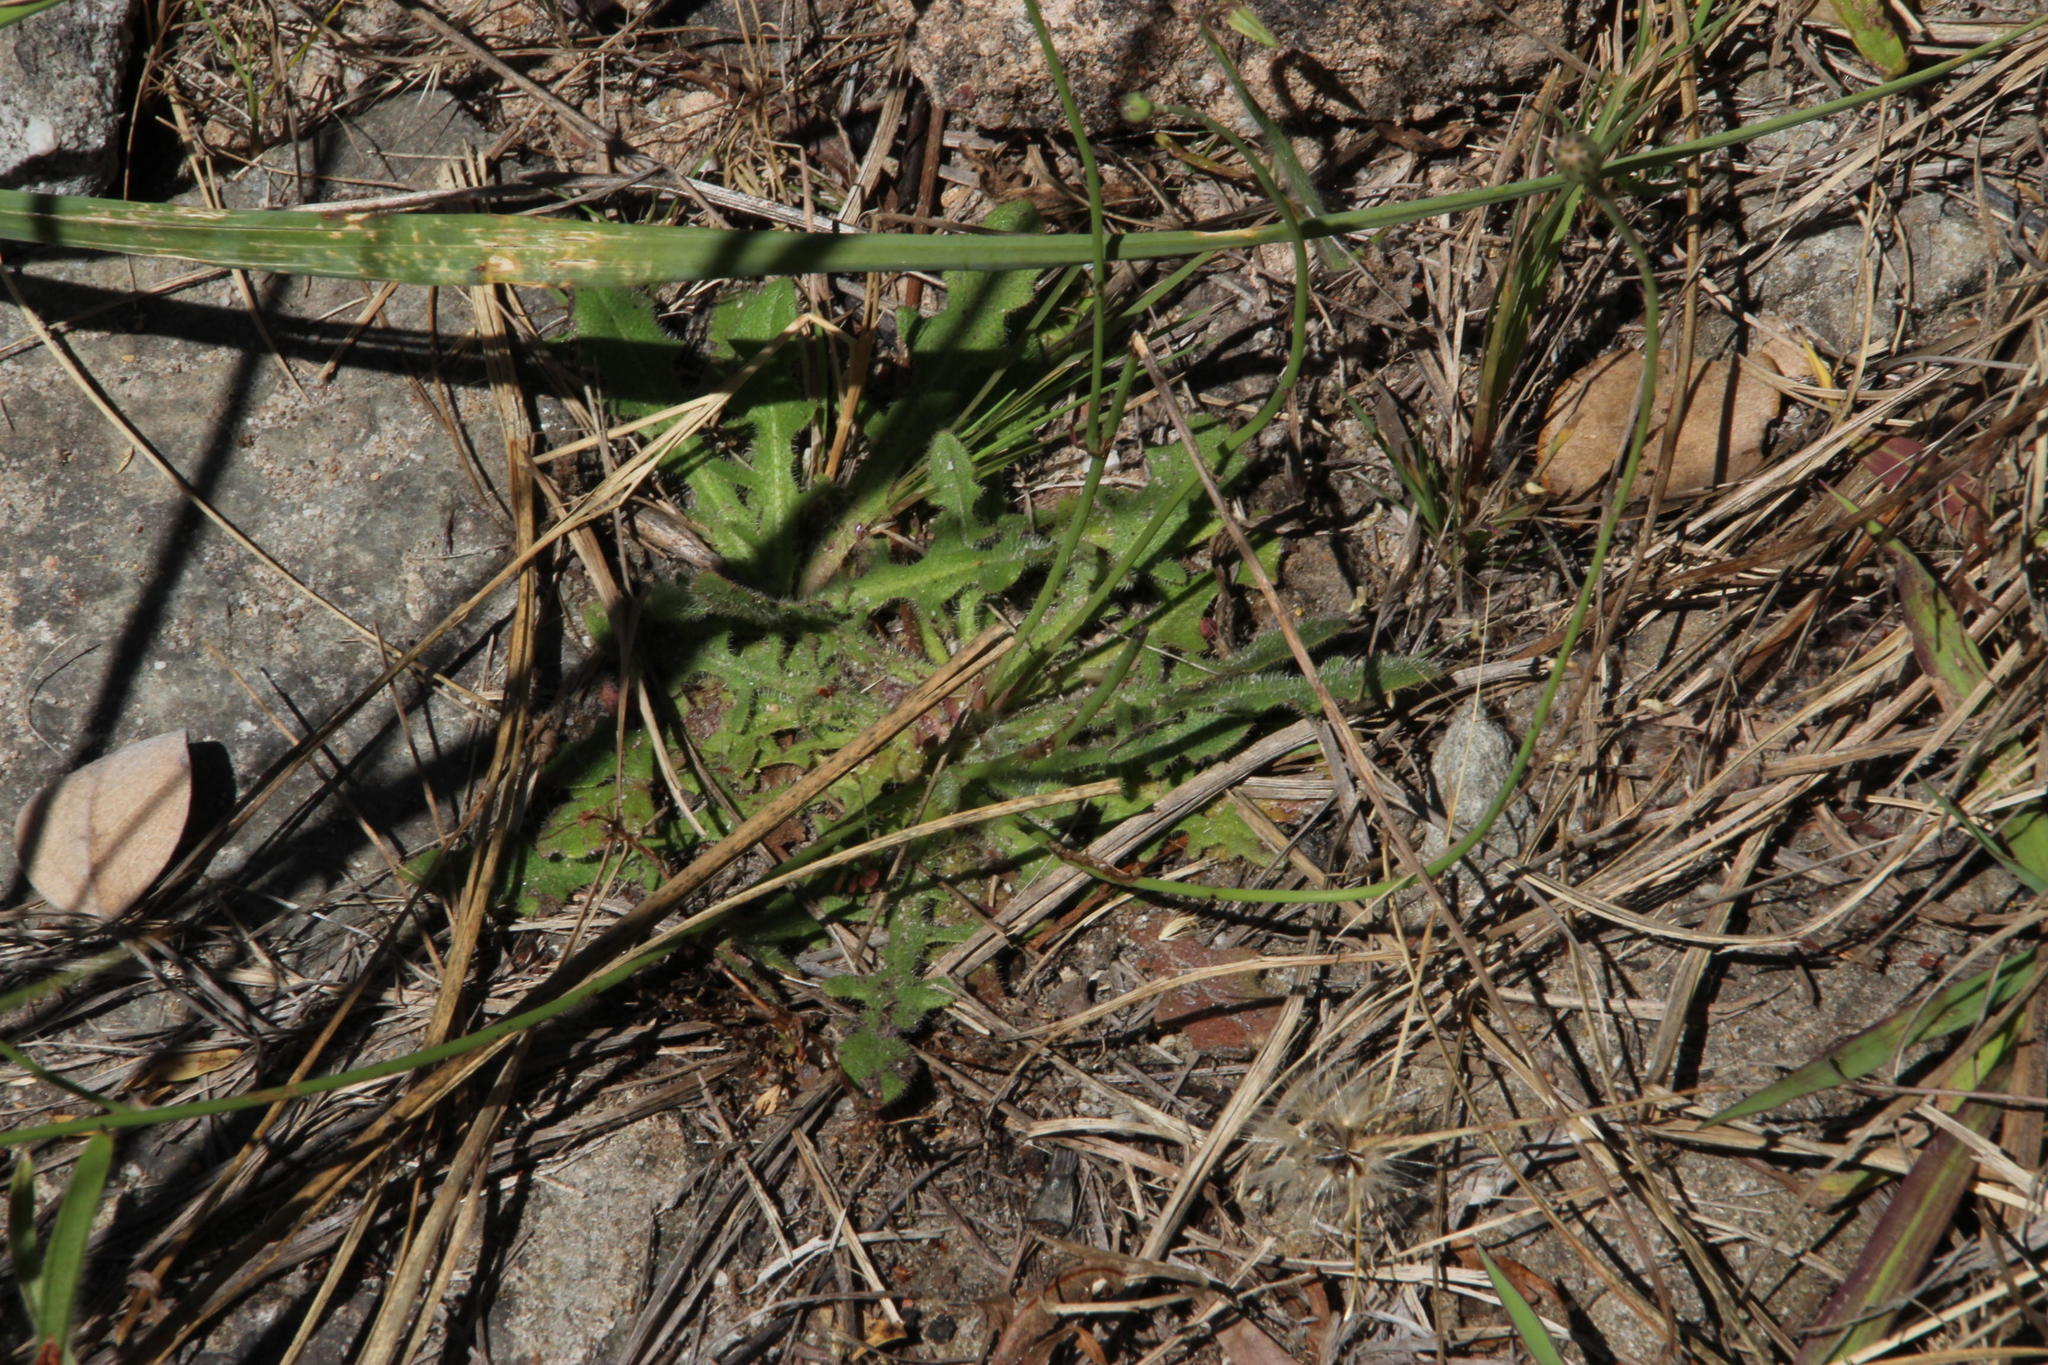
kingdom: Plantae
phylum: Tracheophyta
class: Magnoliopsida
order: Asterales
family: Asteraceae
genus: Hypochaeris
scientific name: Hypochaeris radicata
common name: Flatweed
